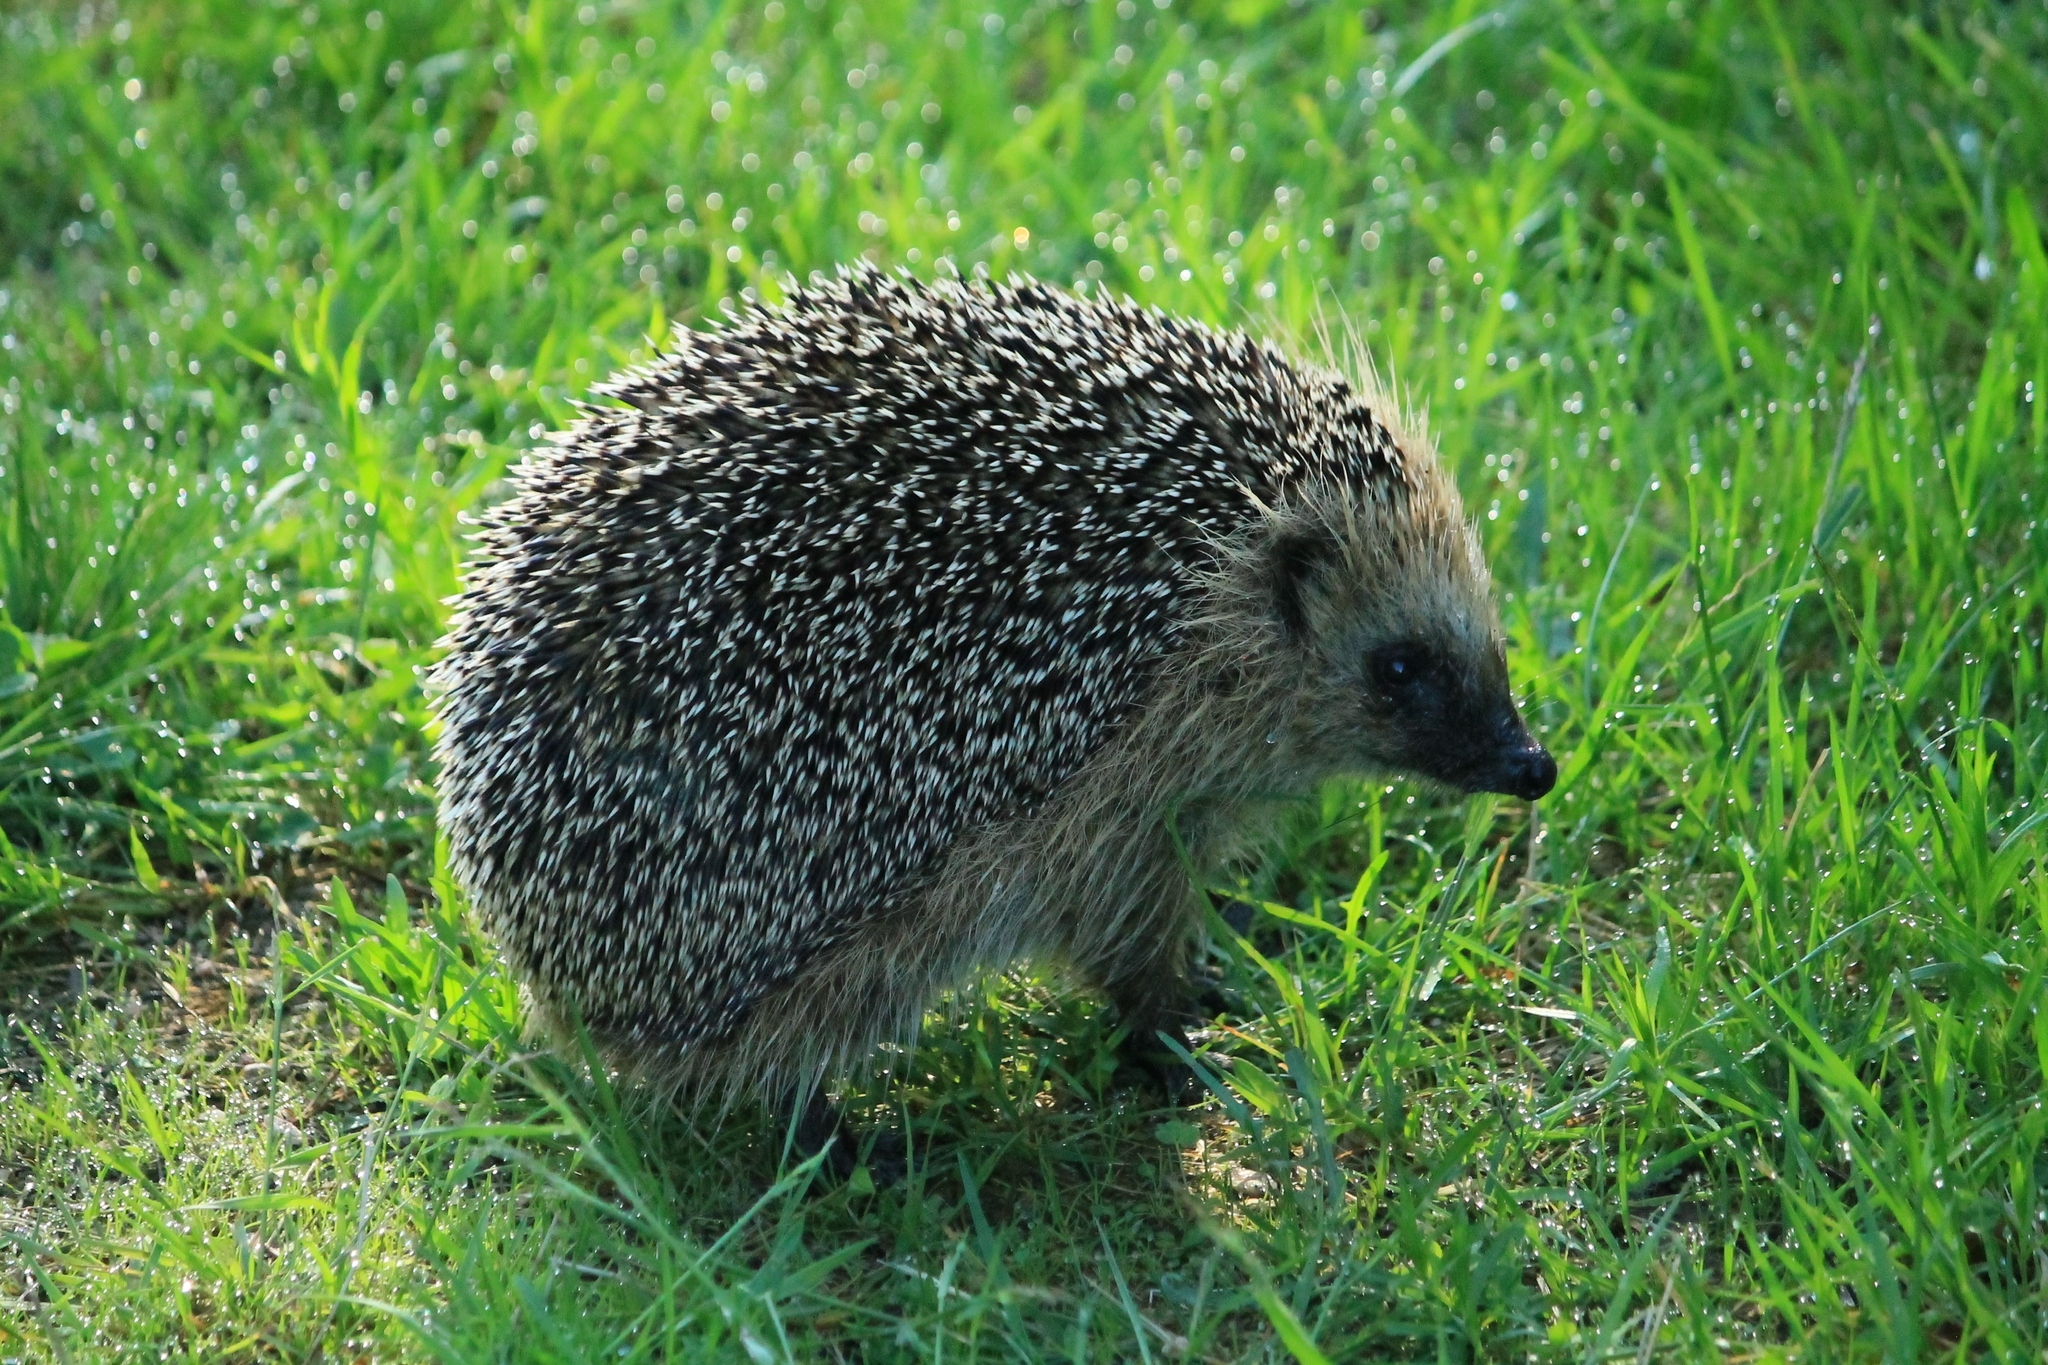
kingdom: Animalia
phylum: Chordata
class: Mammalia
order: Erinaceomorpha
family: Erinaceidae
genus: Erinaceus
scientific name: Erinaceus europaeus
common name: West european hedgehog
